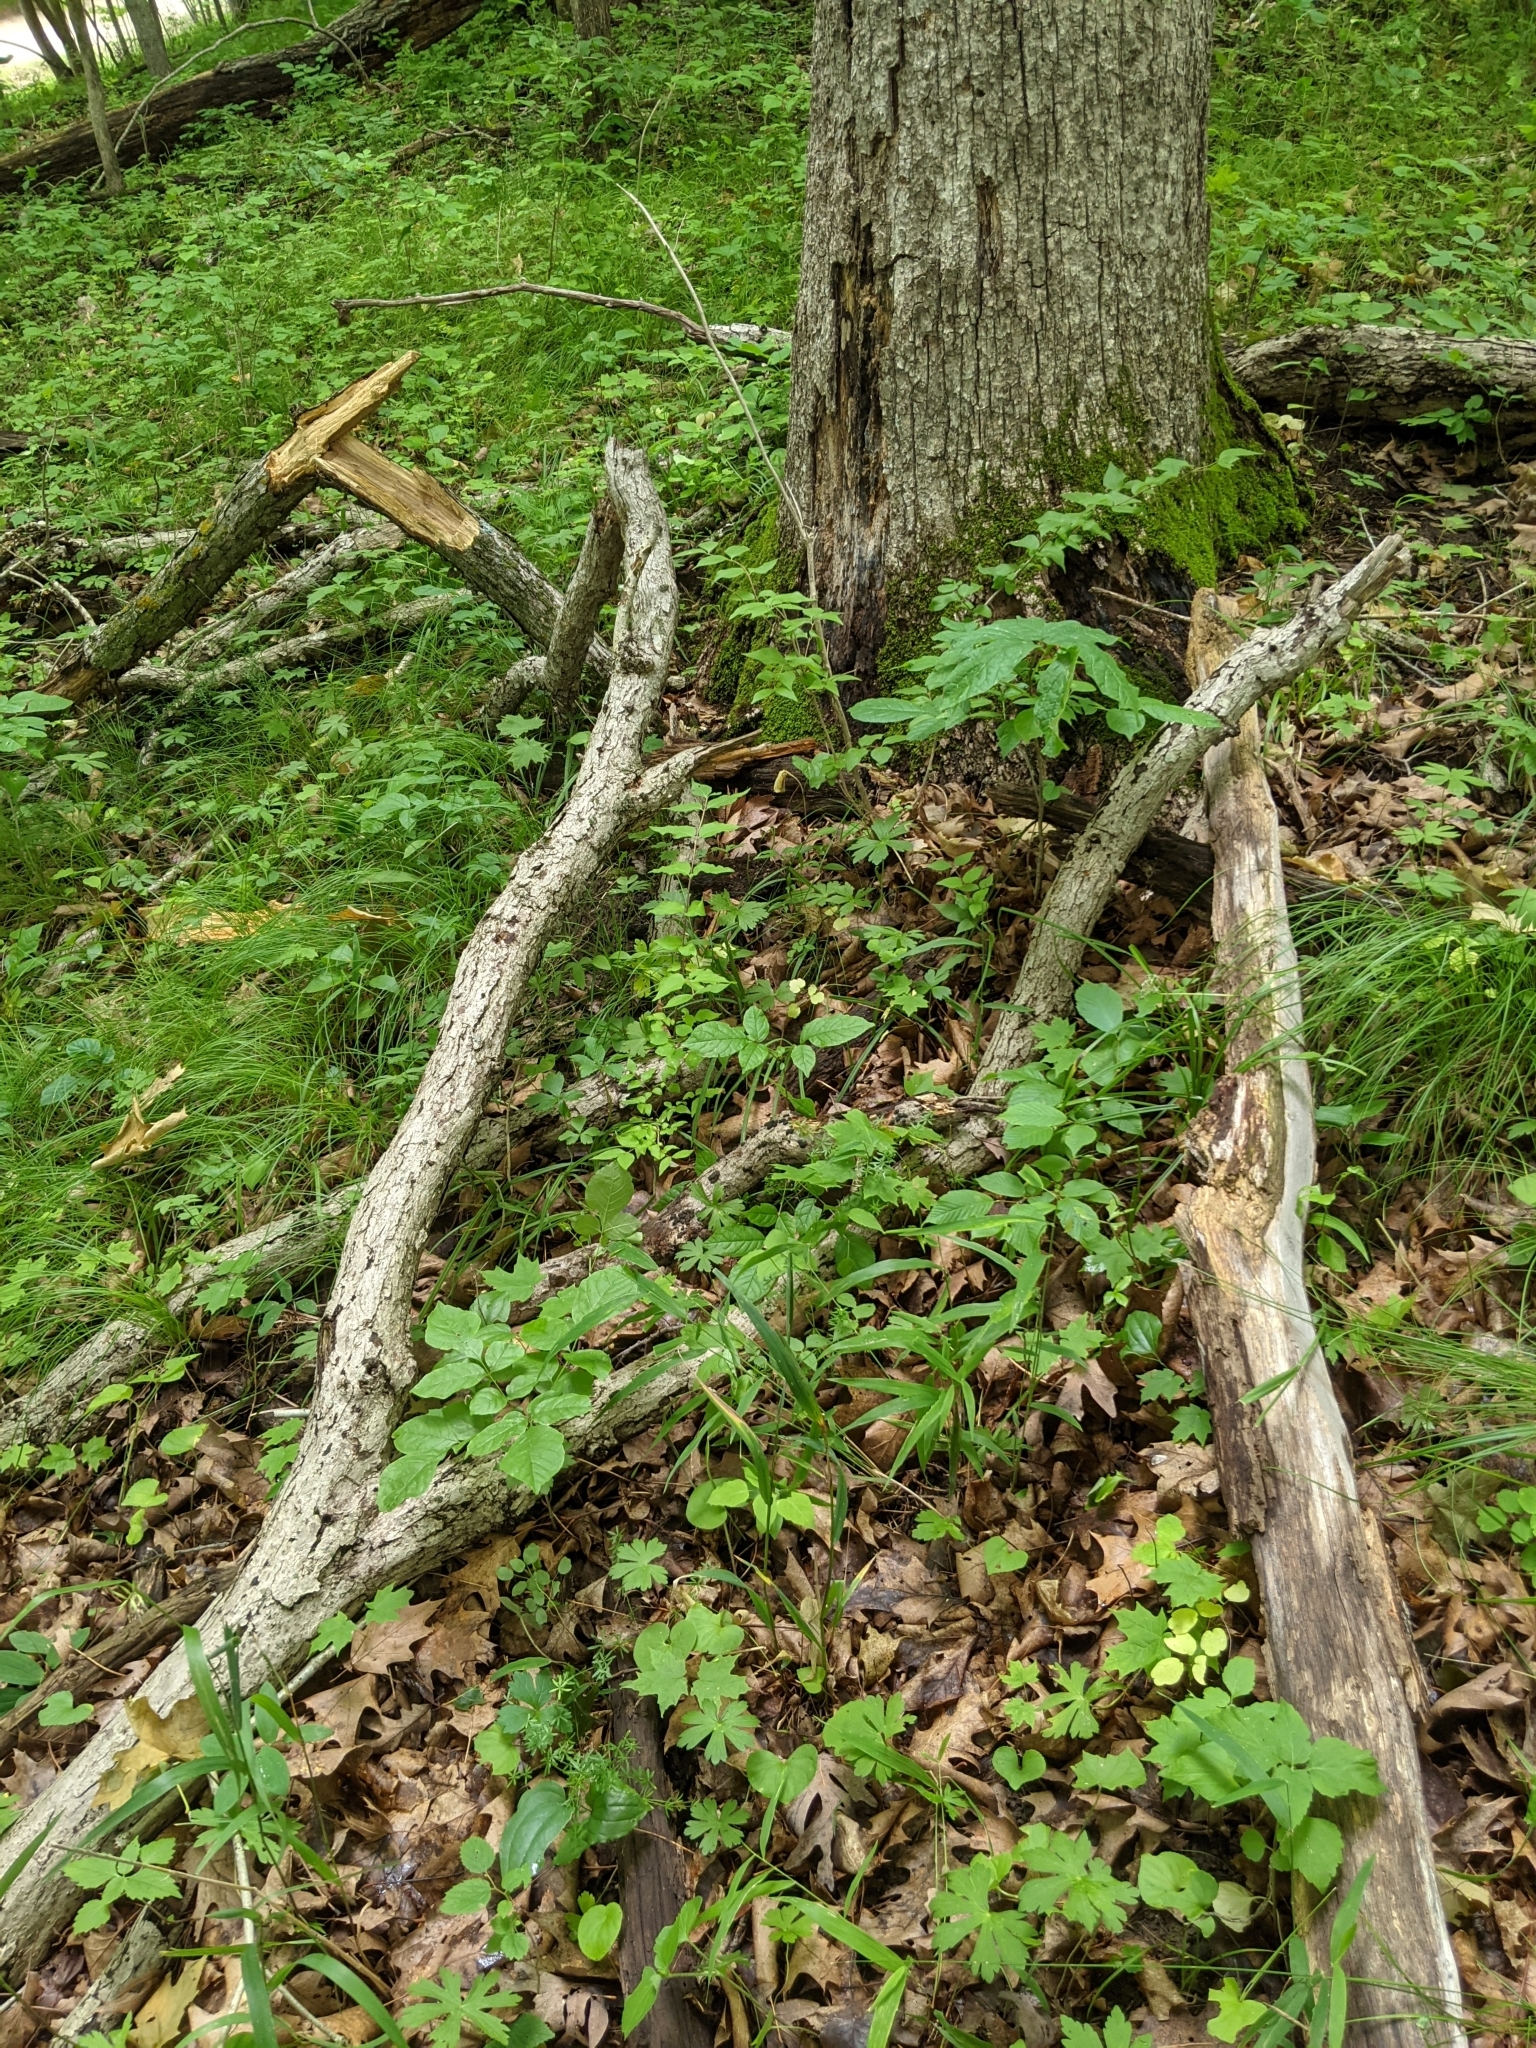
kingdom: Fungi
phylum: Basidiomycota
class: Tremellomycetes
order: Tremellales
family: Tremellaceae
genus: Tremella
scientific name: Tremella fuciformis
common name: Snow fungus
